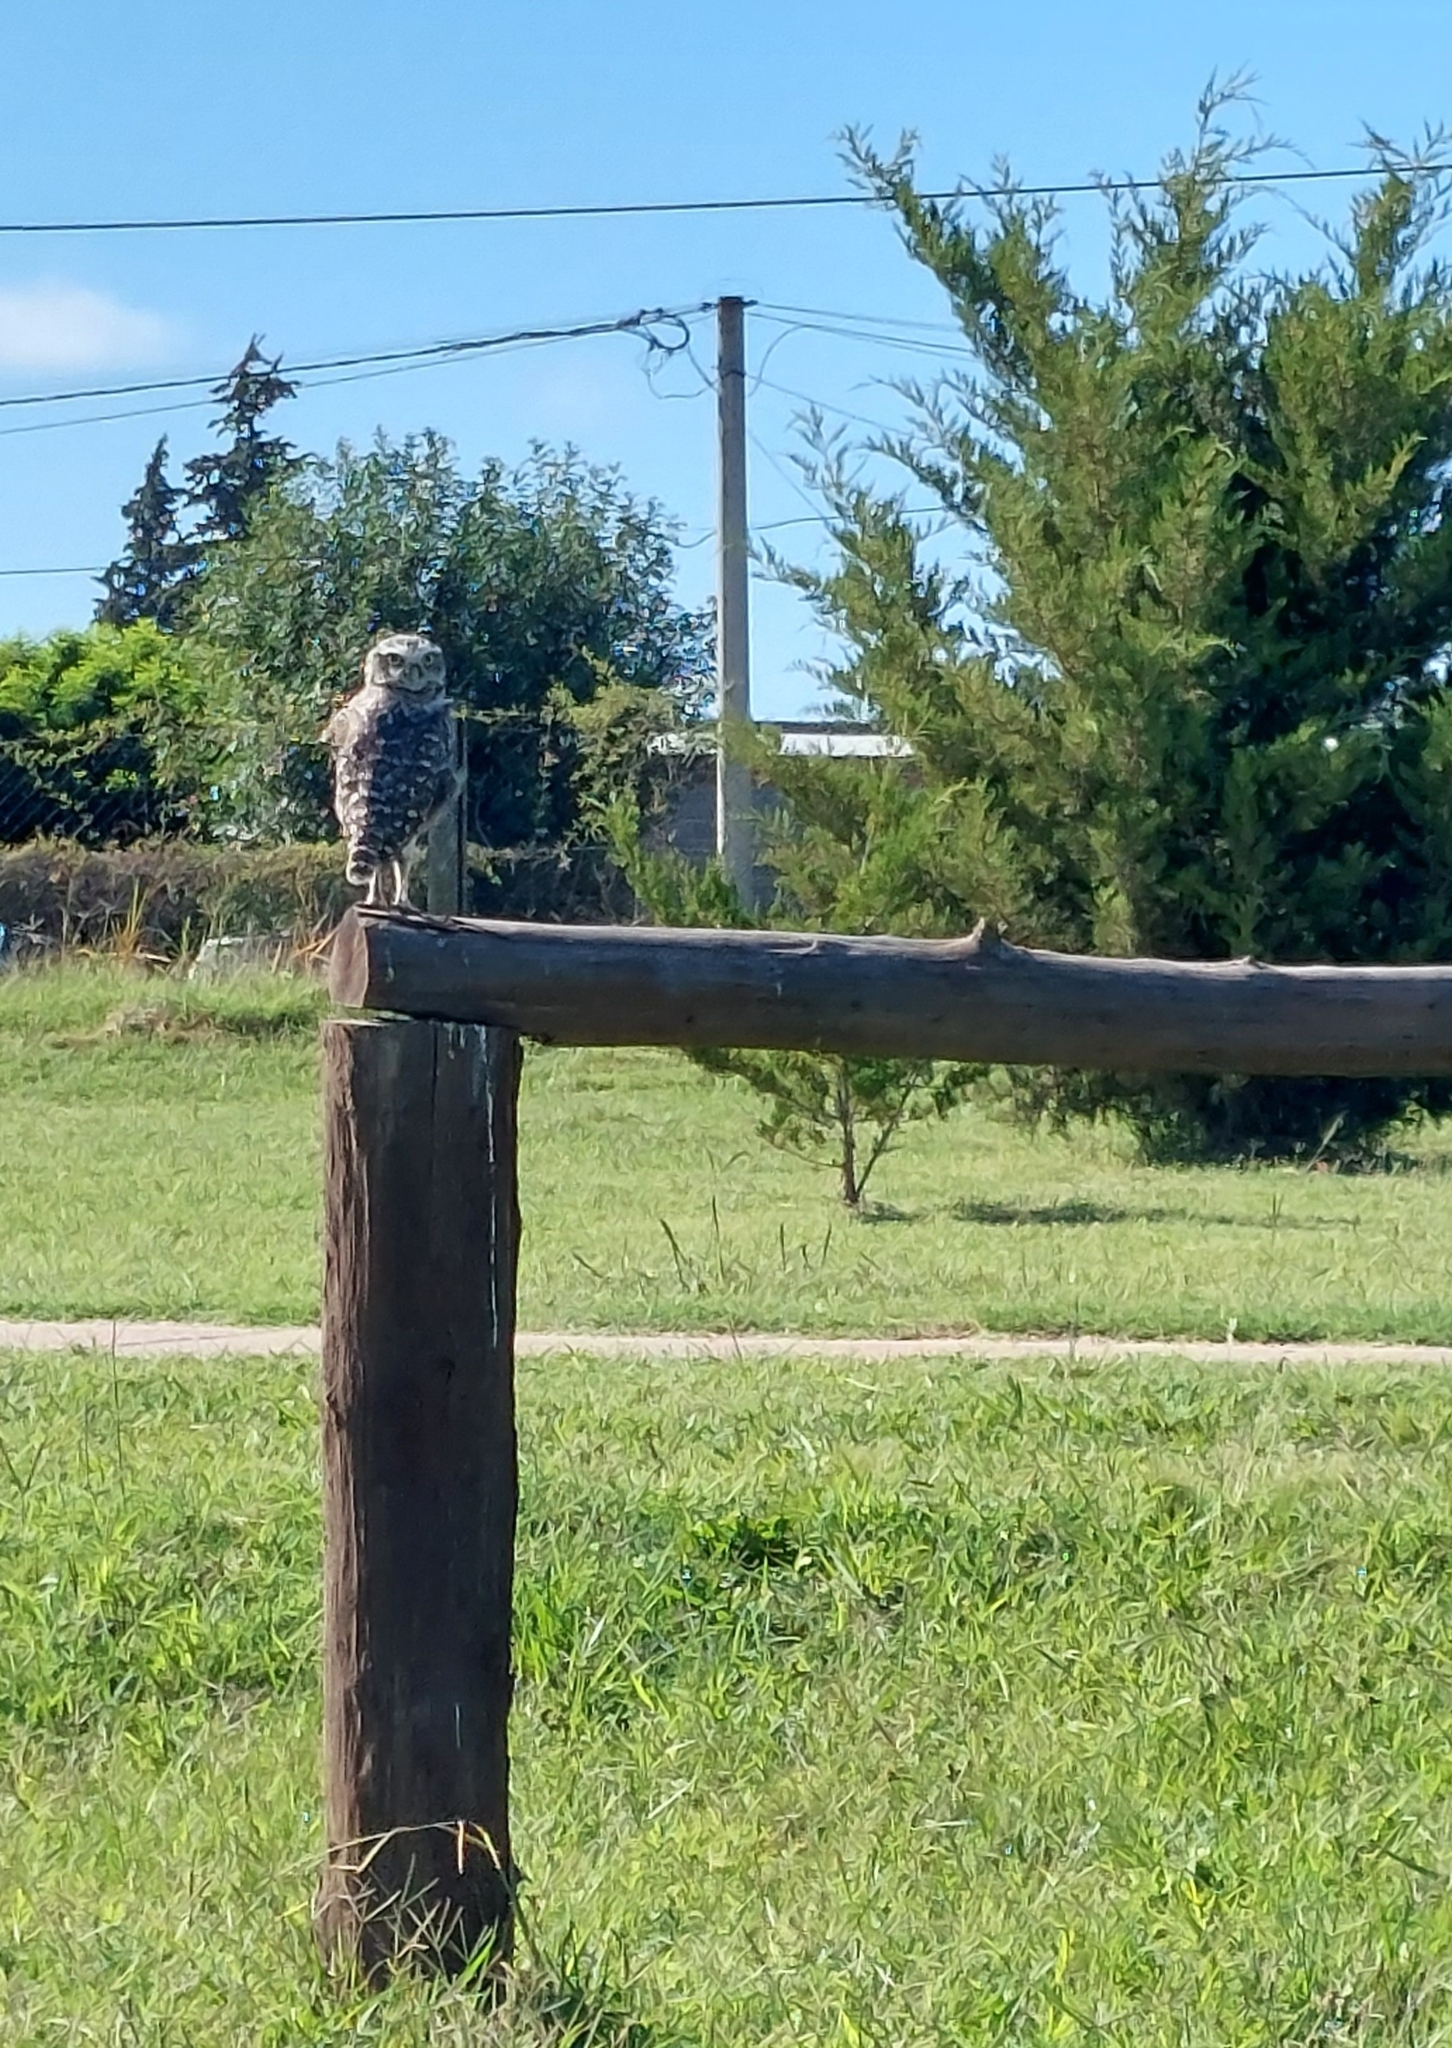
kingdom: Animalia
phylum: Chordata
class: Aves
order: Strigiformes
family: Strigidae
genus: Athene
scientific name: Athene cunicularia
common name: Burrowing owl
